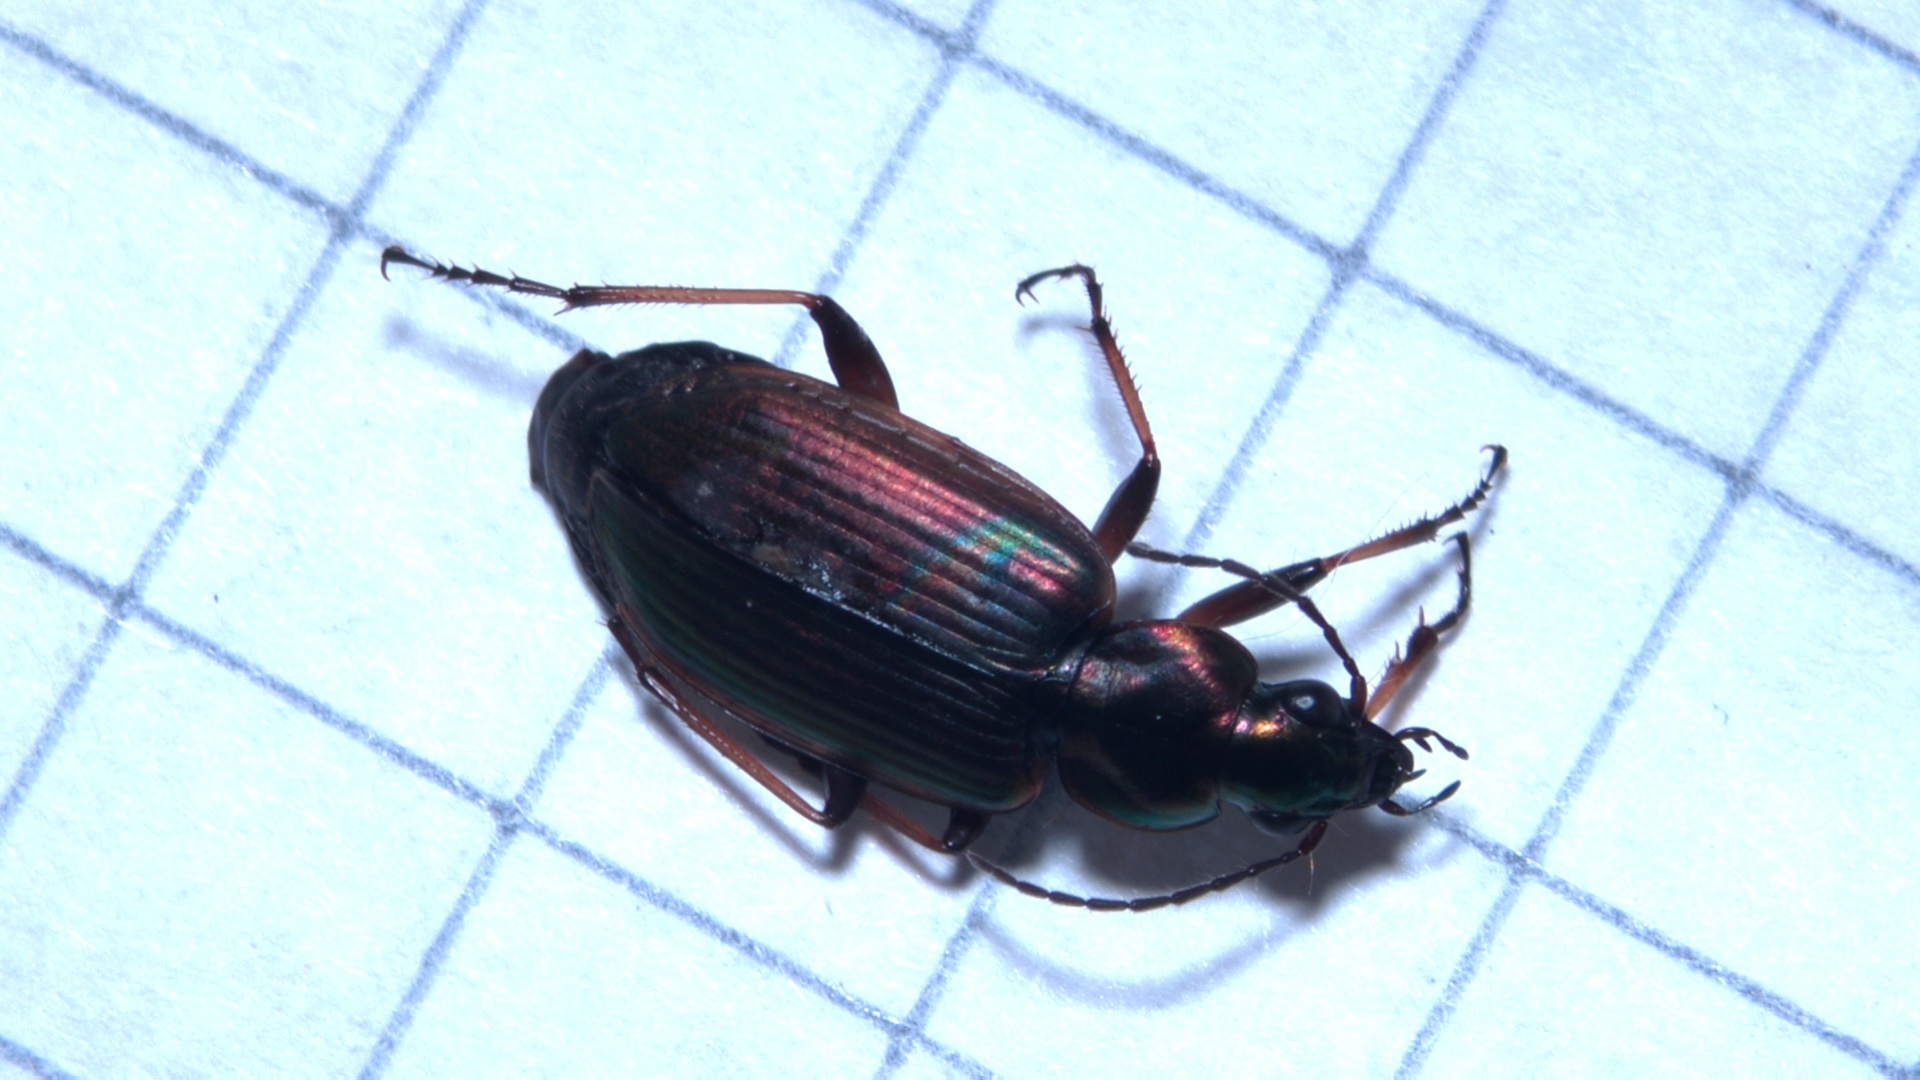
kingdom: Animalia
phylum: Arthropoda
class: Insecta
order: Coleoptera
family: Carabidae
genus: Agonum
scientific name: Agonum marginatum
